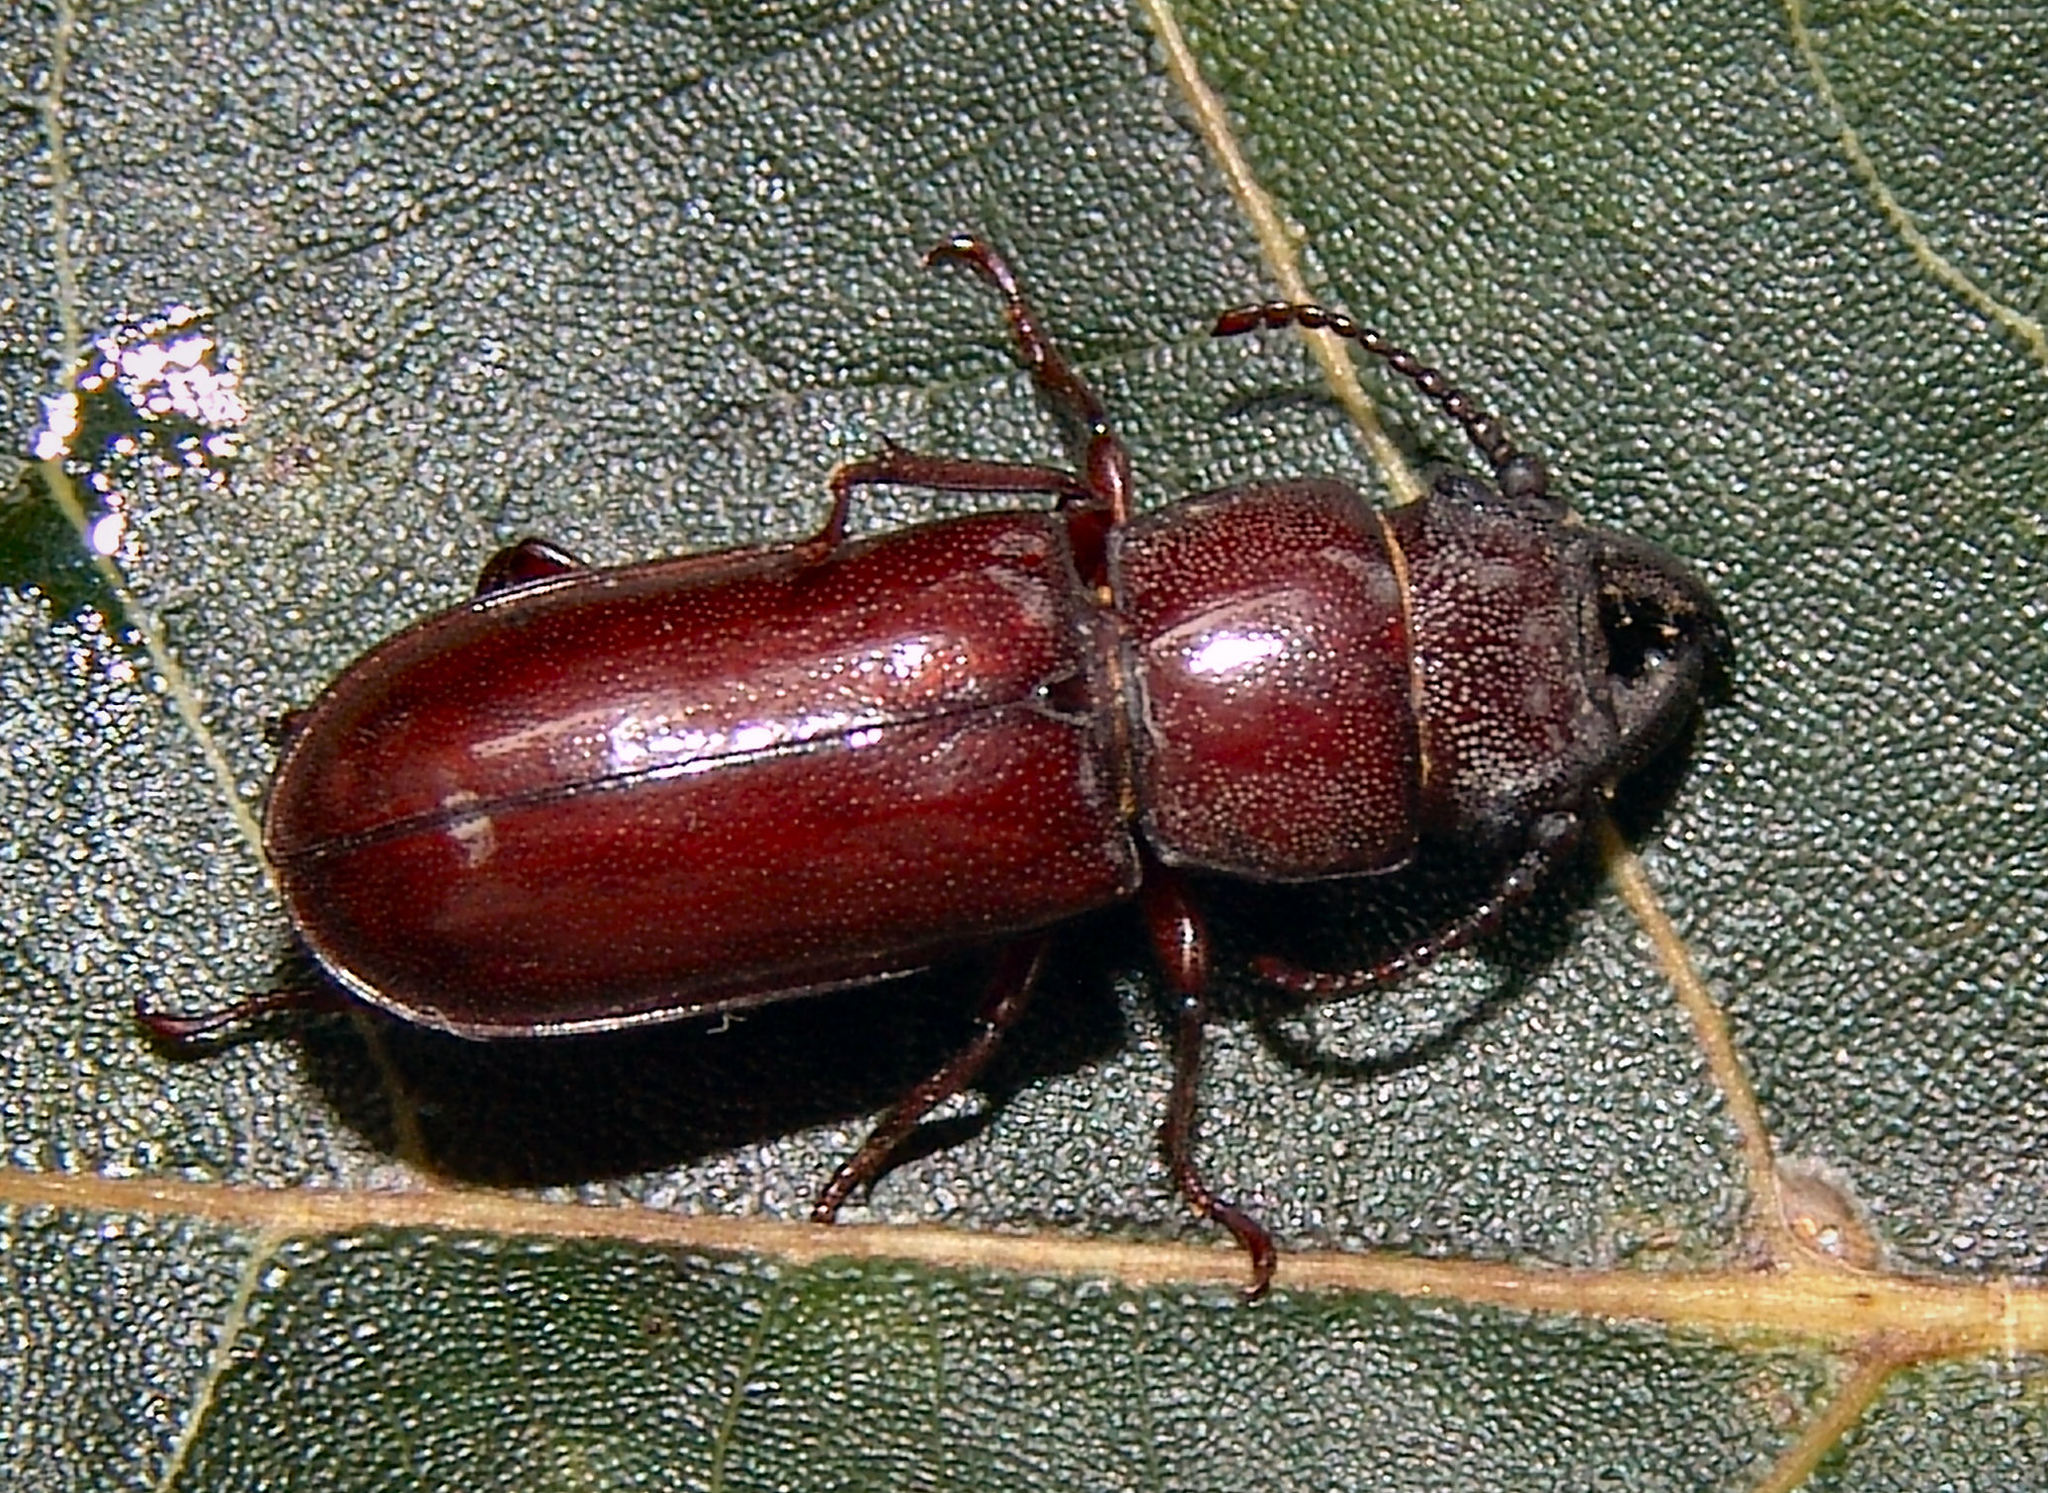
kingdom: Animalia
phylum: Arthropoda
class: Insecta
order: Coleoptera
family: Cerambycidae
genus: Neandra
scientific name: Neandra brunnea
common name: Pole borer
